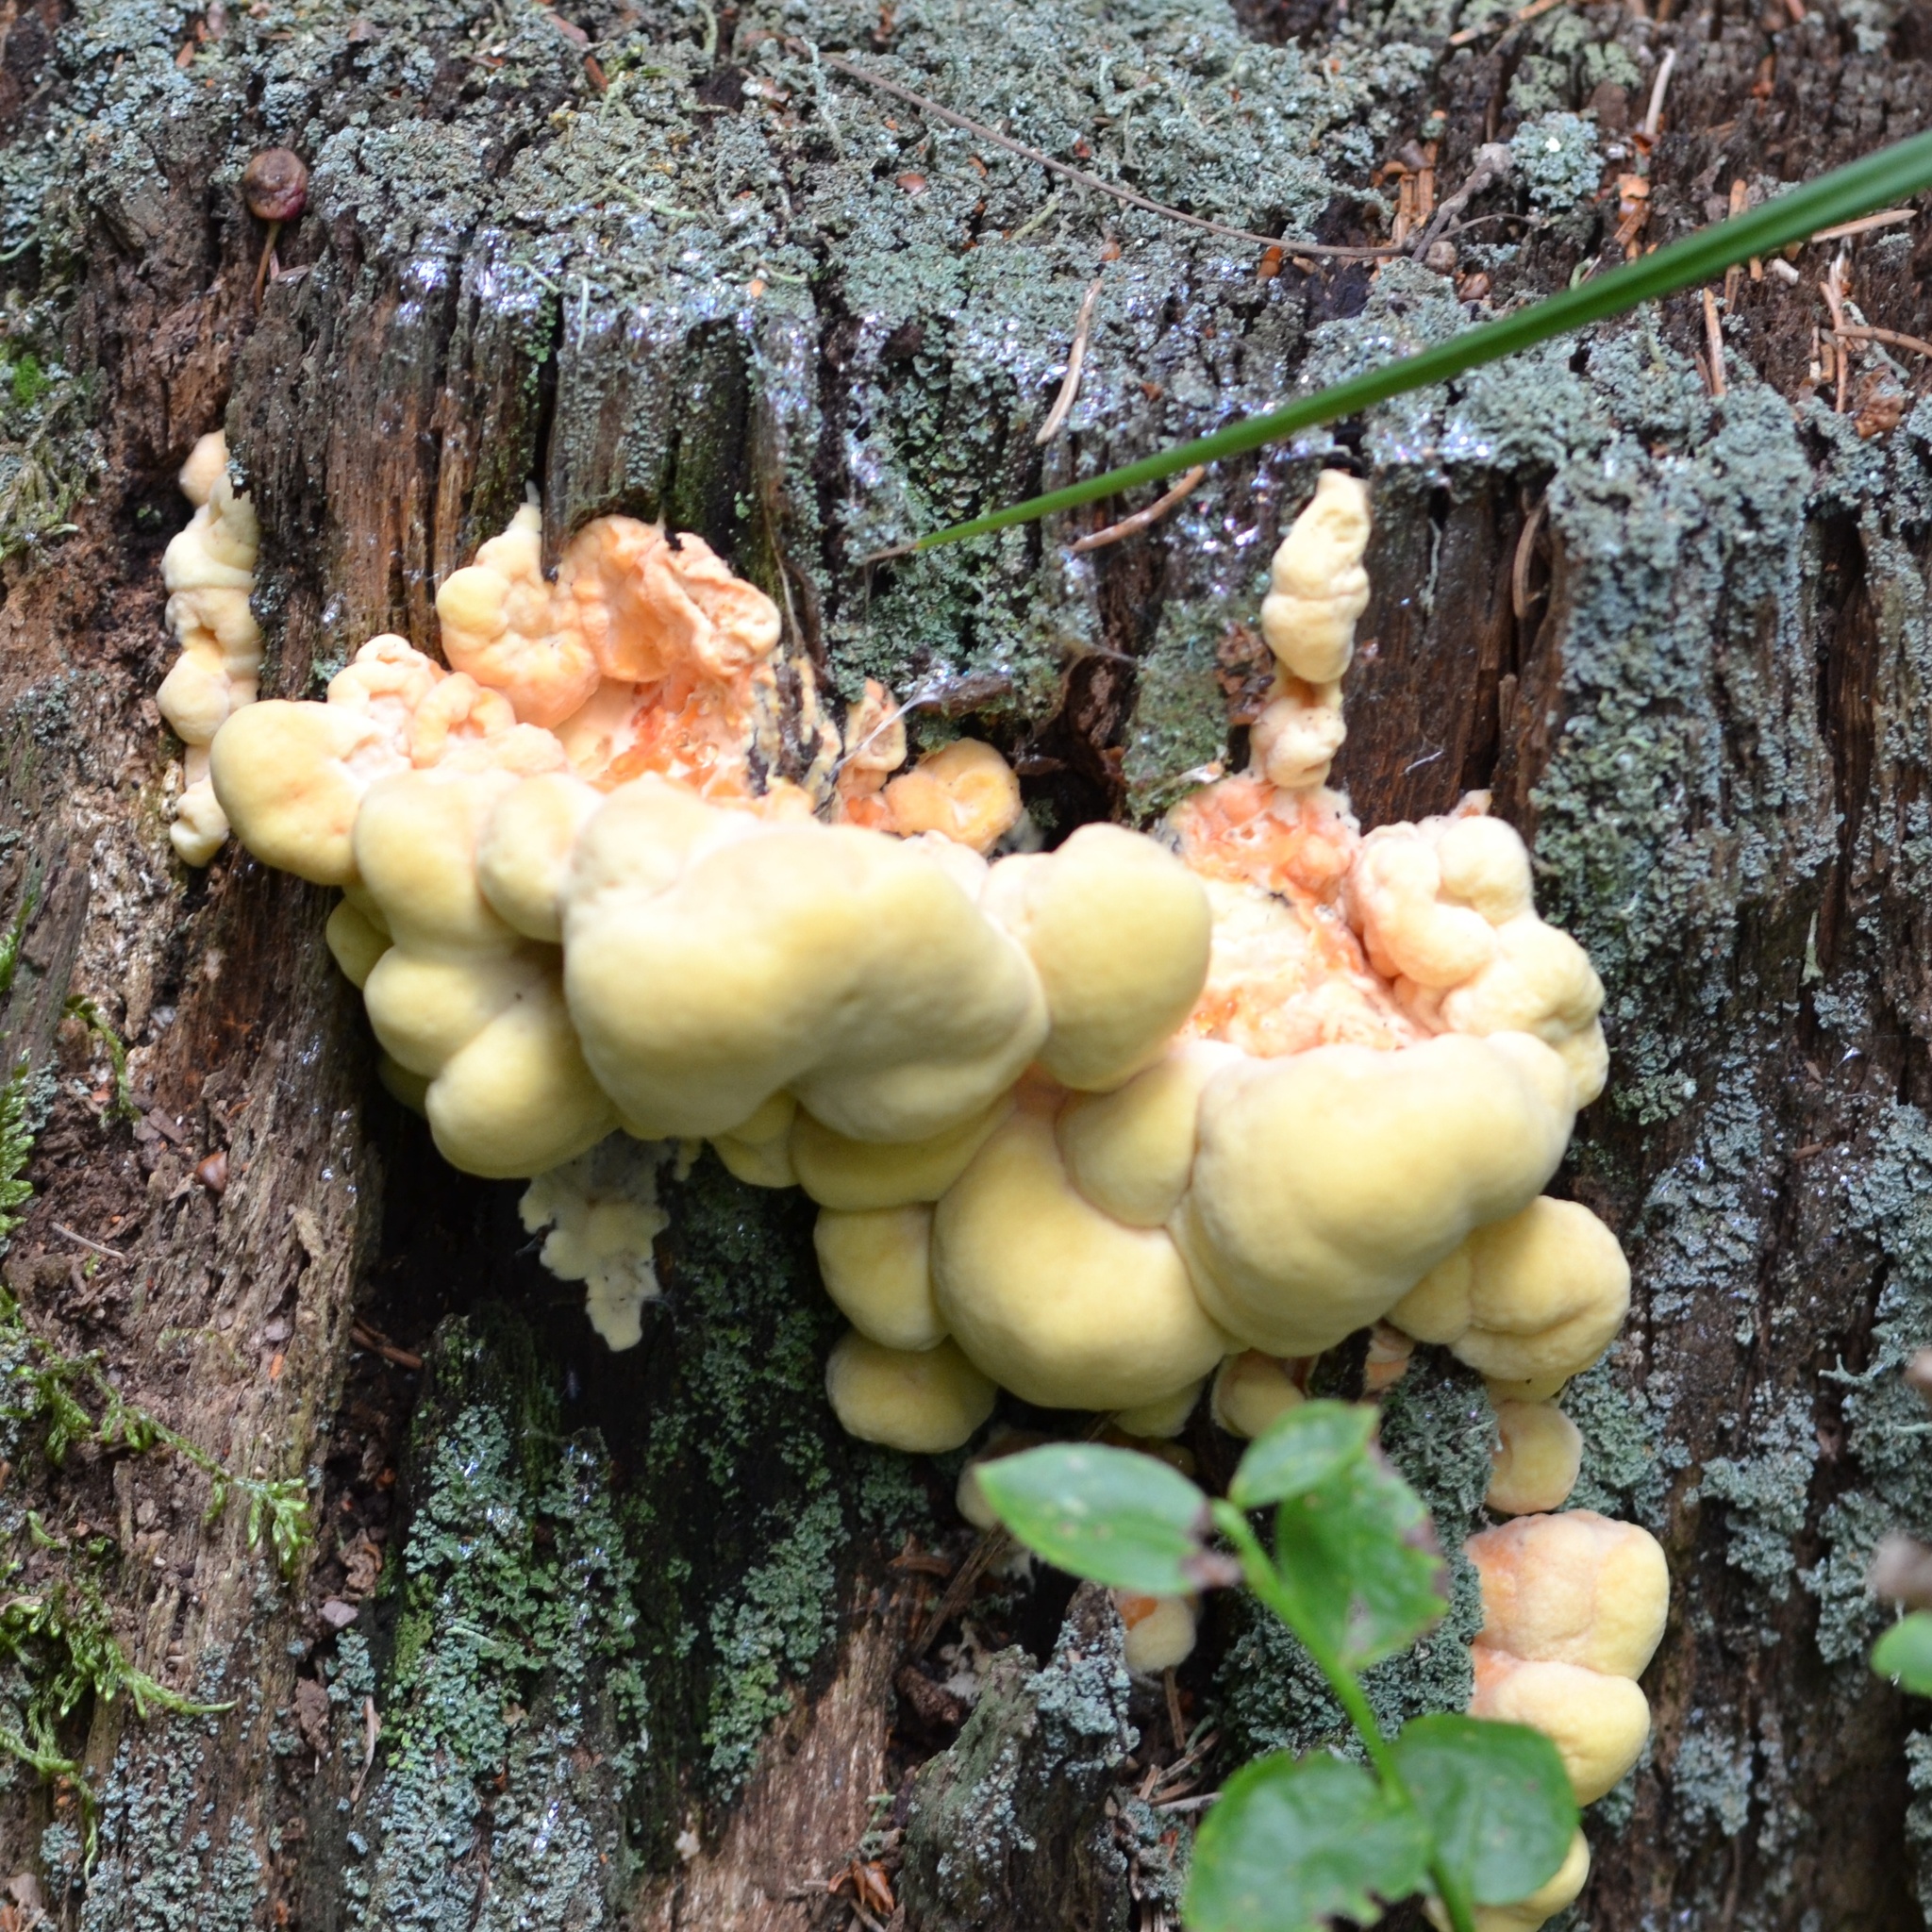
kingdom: Fungi
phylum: Basidiomycota
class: Agaricomycetes
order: Polyporales
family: Laetiporaceae
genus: Laetiporus
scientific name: Laetiporus sulphureus
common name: Chicken of the woods
